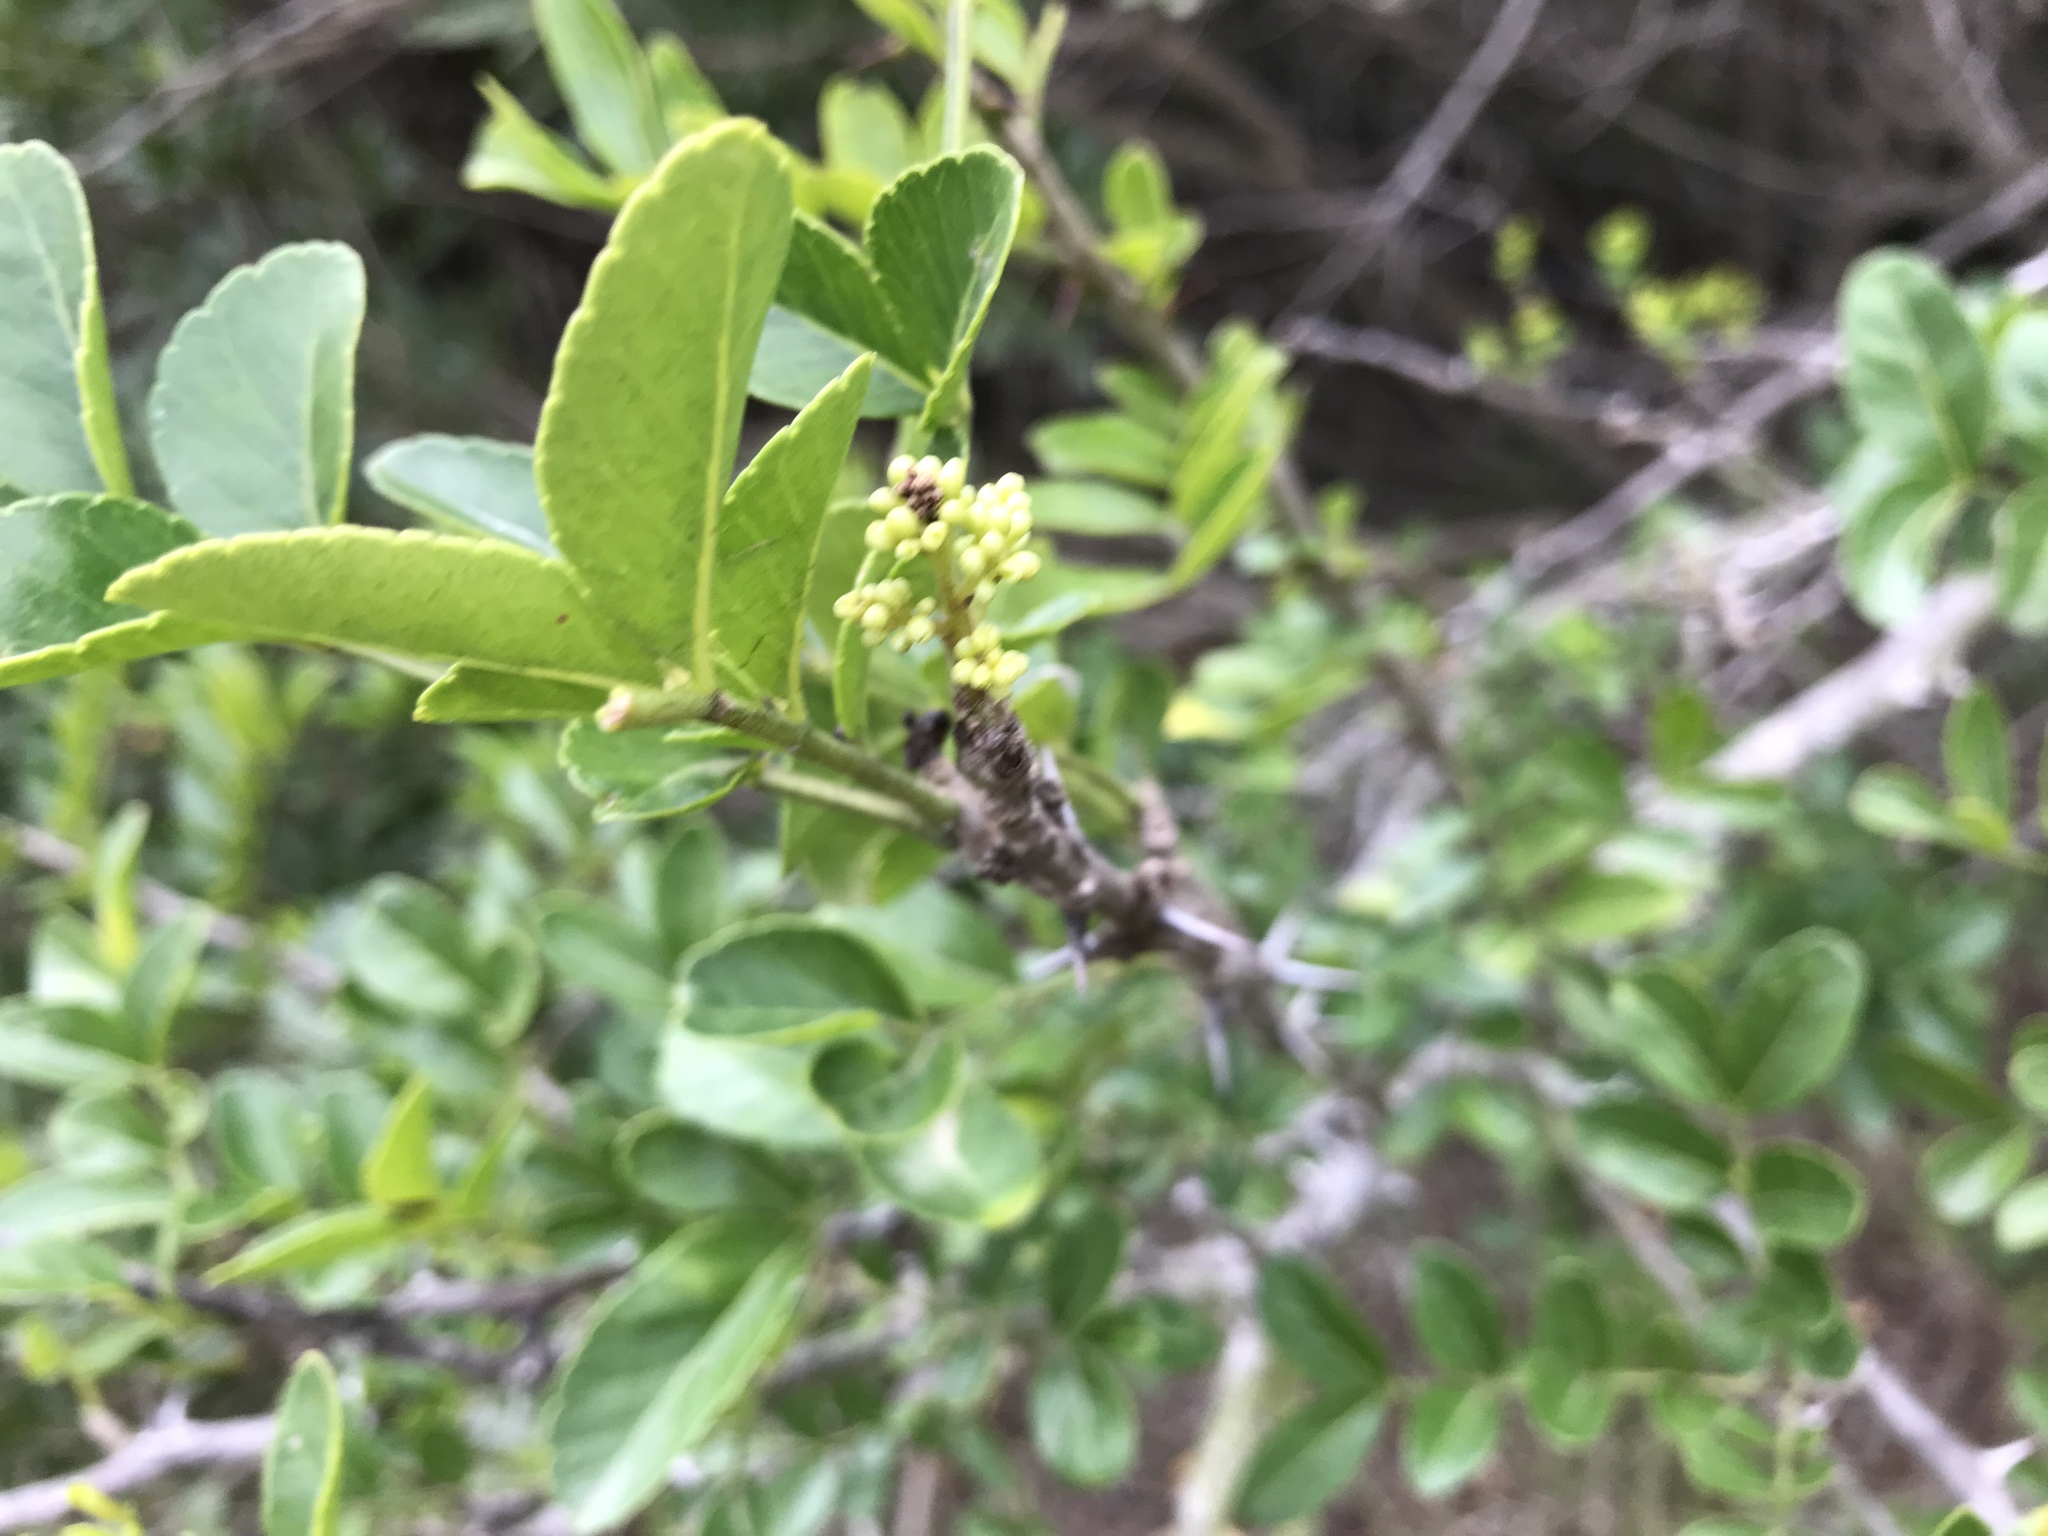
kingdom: Plantae
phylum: Tracheophyta
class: Magnoliopsida
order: Sapindales
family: Rutaceae
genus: Zanthoxylum
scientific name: Zanthoxylum capense
